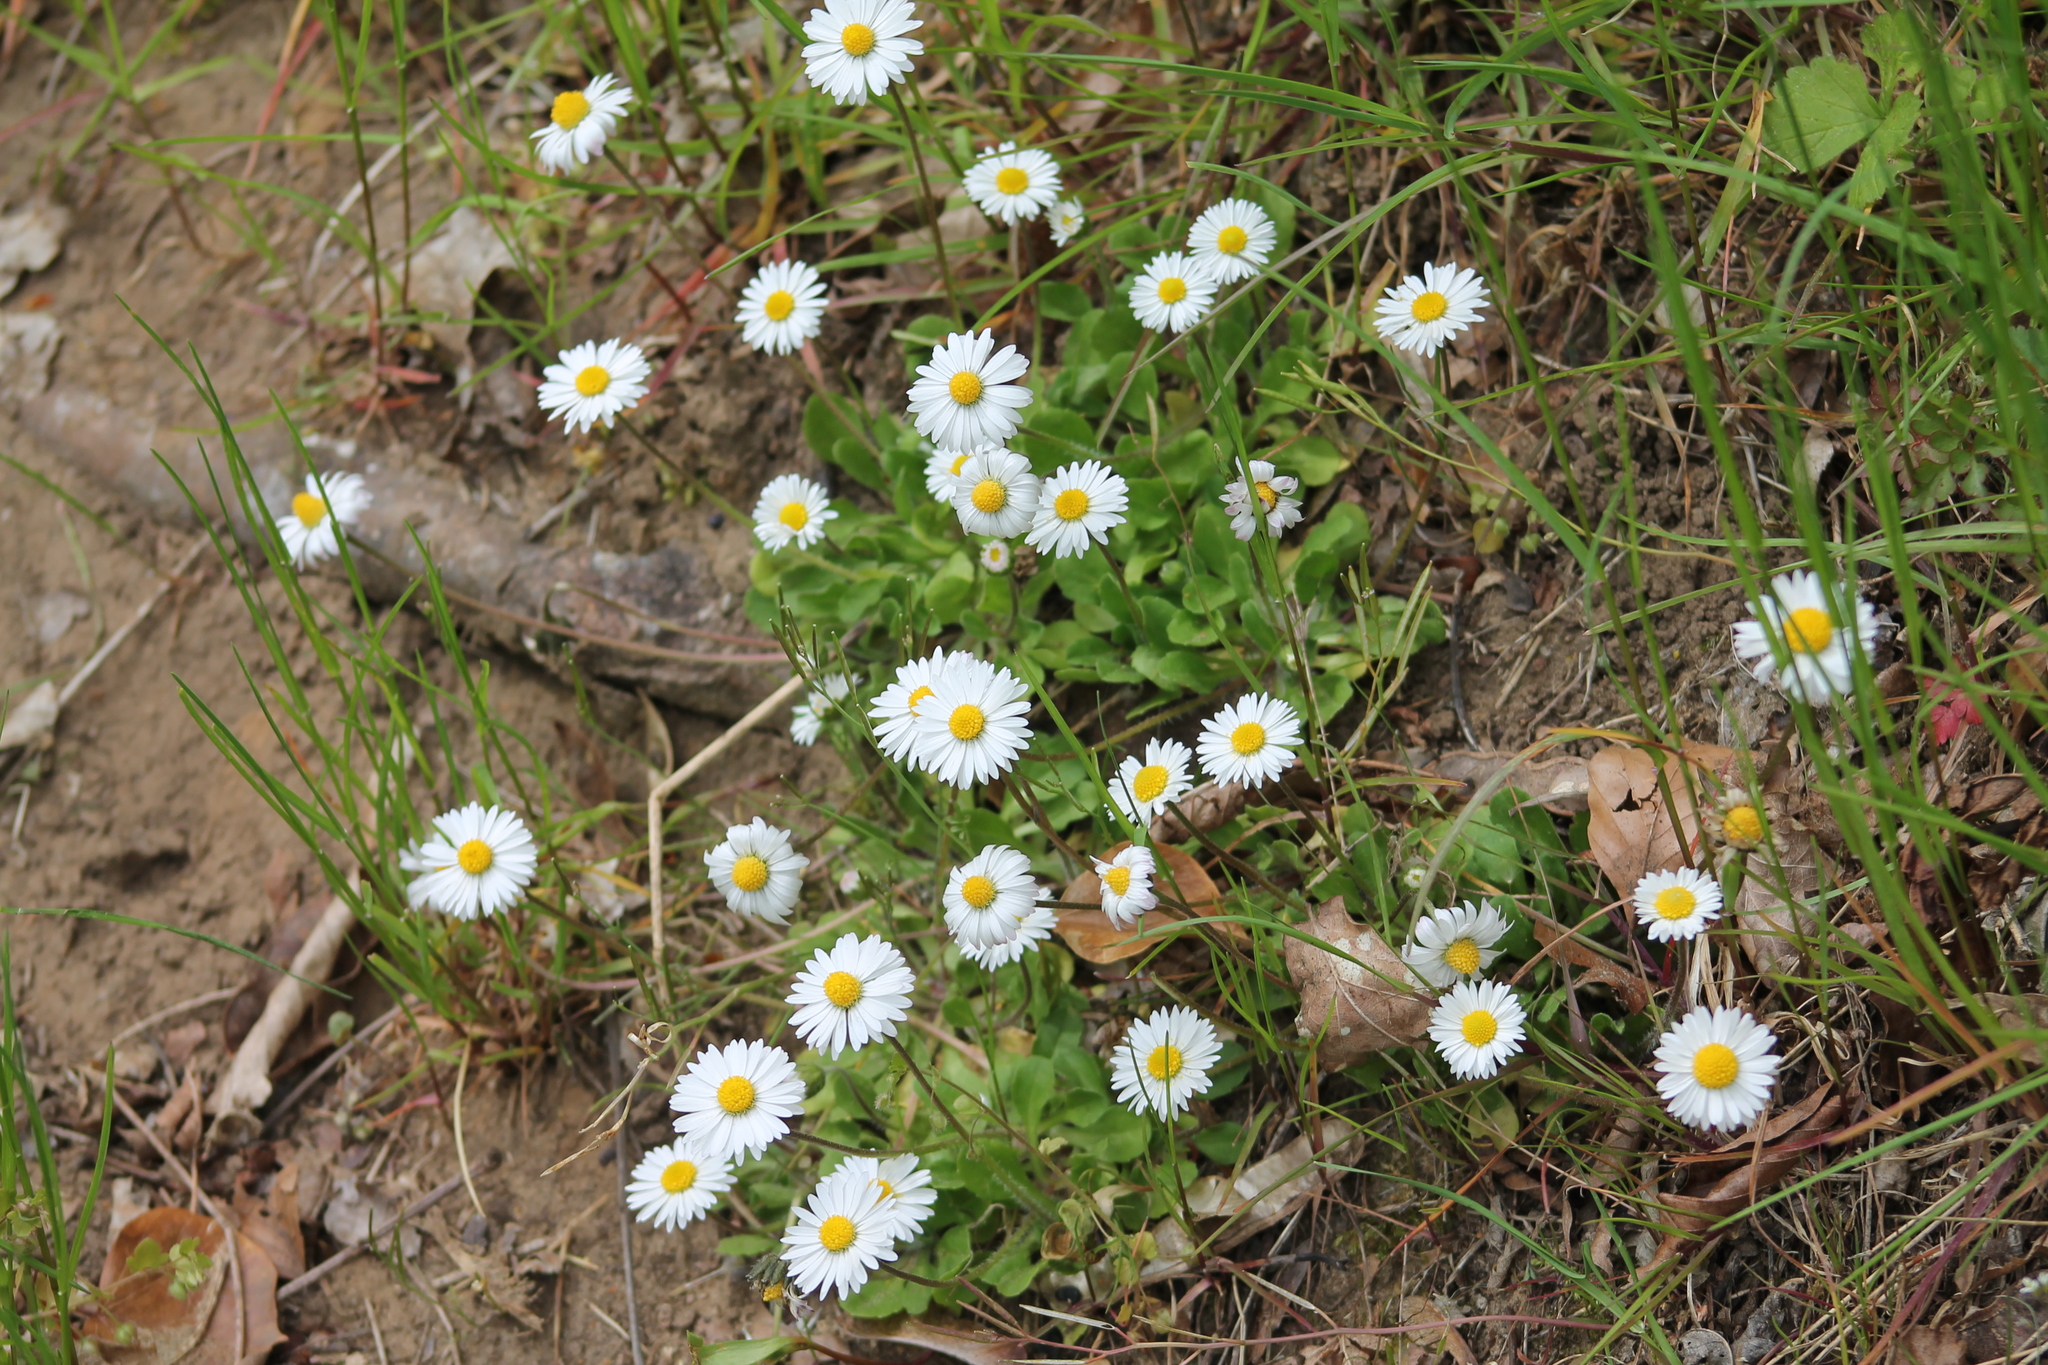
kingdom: Plantae
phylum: Tracheophyta
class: Magnoliopsida
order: Asterales
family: Asteraceae
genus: Bellis
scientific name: Bellis perennis
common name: Lawndaisy
